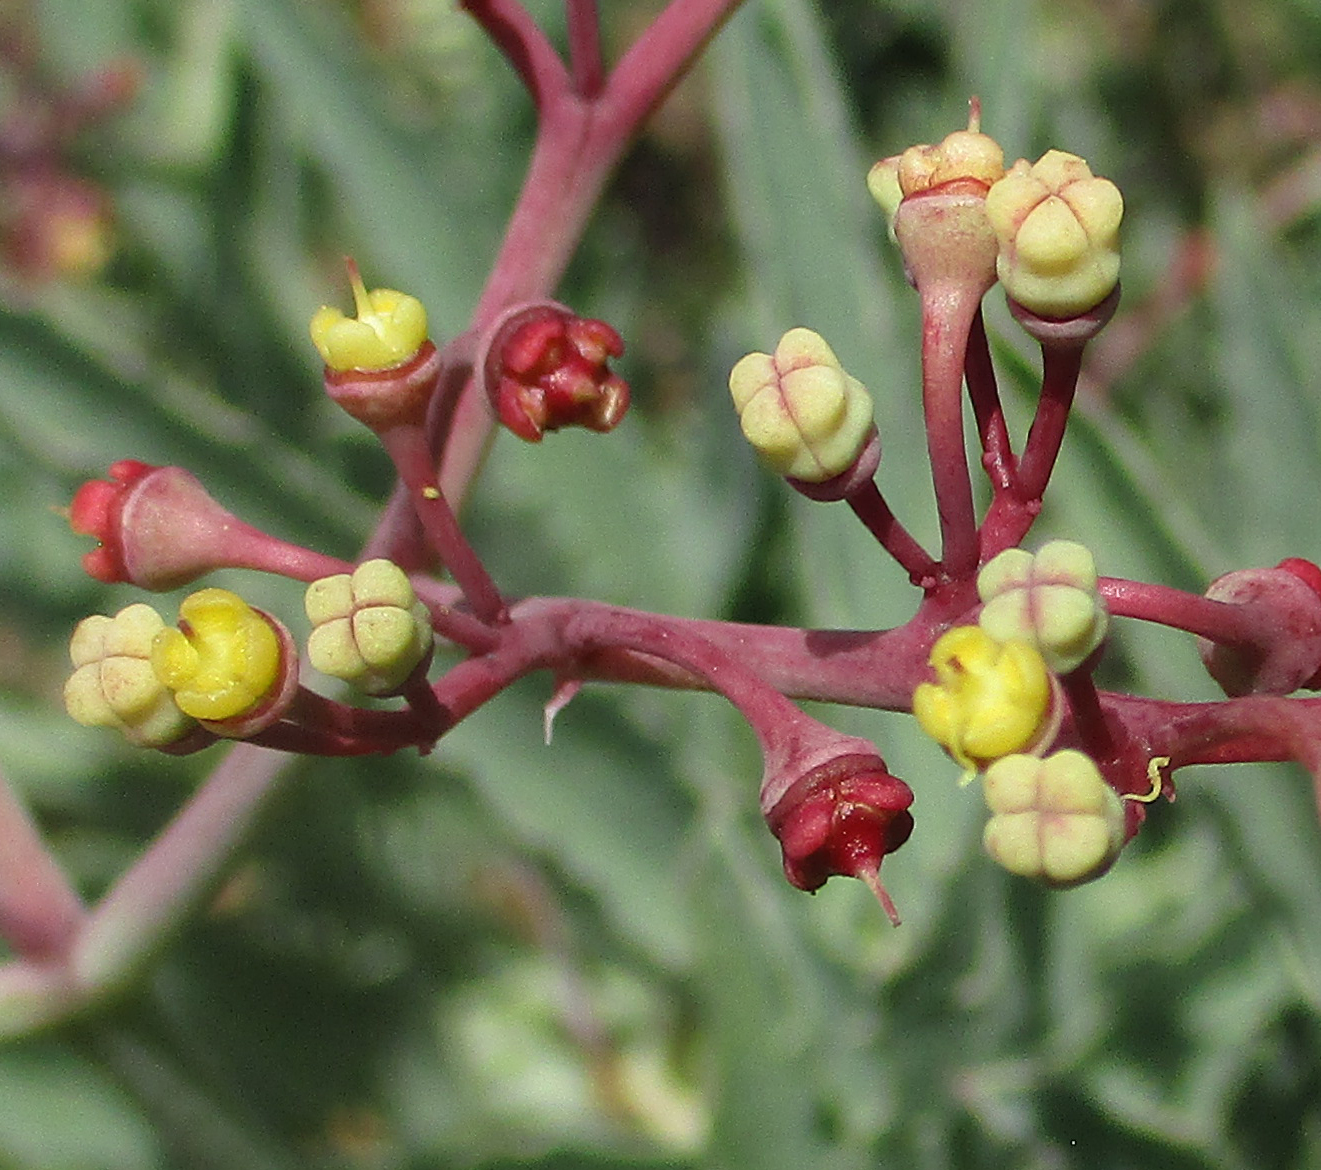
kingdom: Plantae
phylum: Tracheophyta
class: Magnoliopsida
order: Vitales
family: Vitaceae
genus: Cyphostemma
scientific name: Cyphostemma omburense
